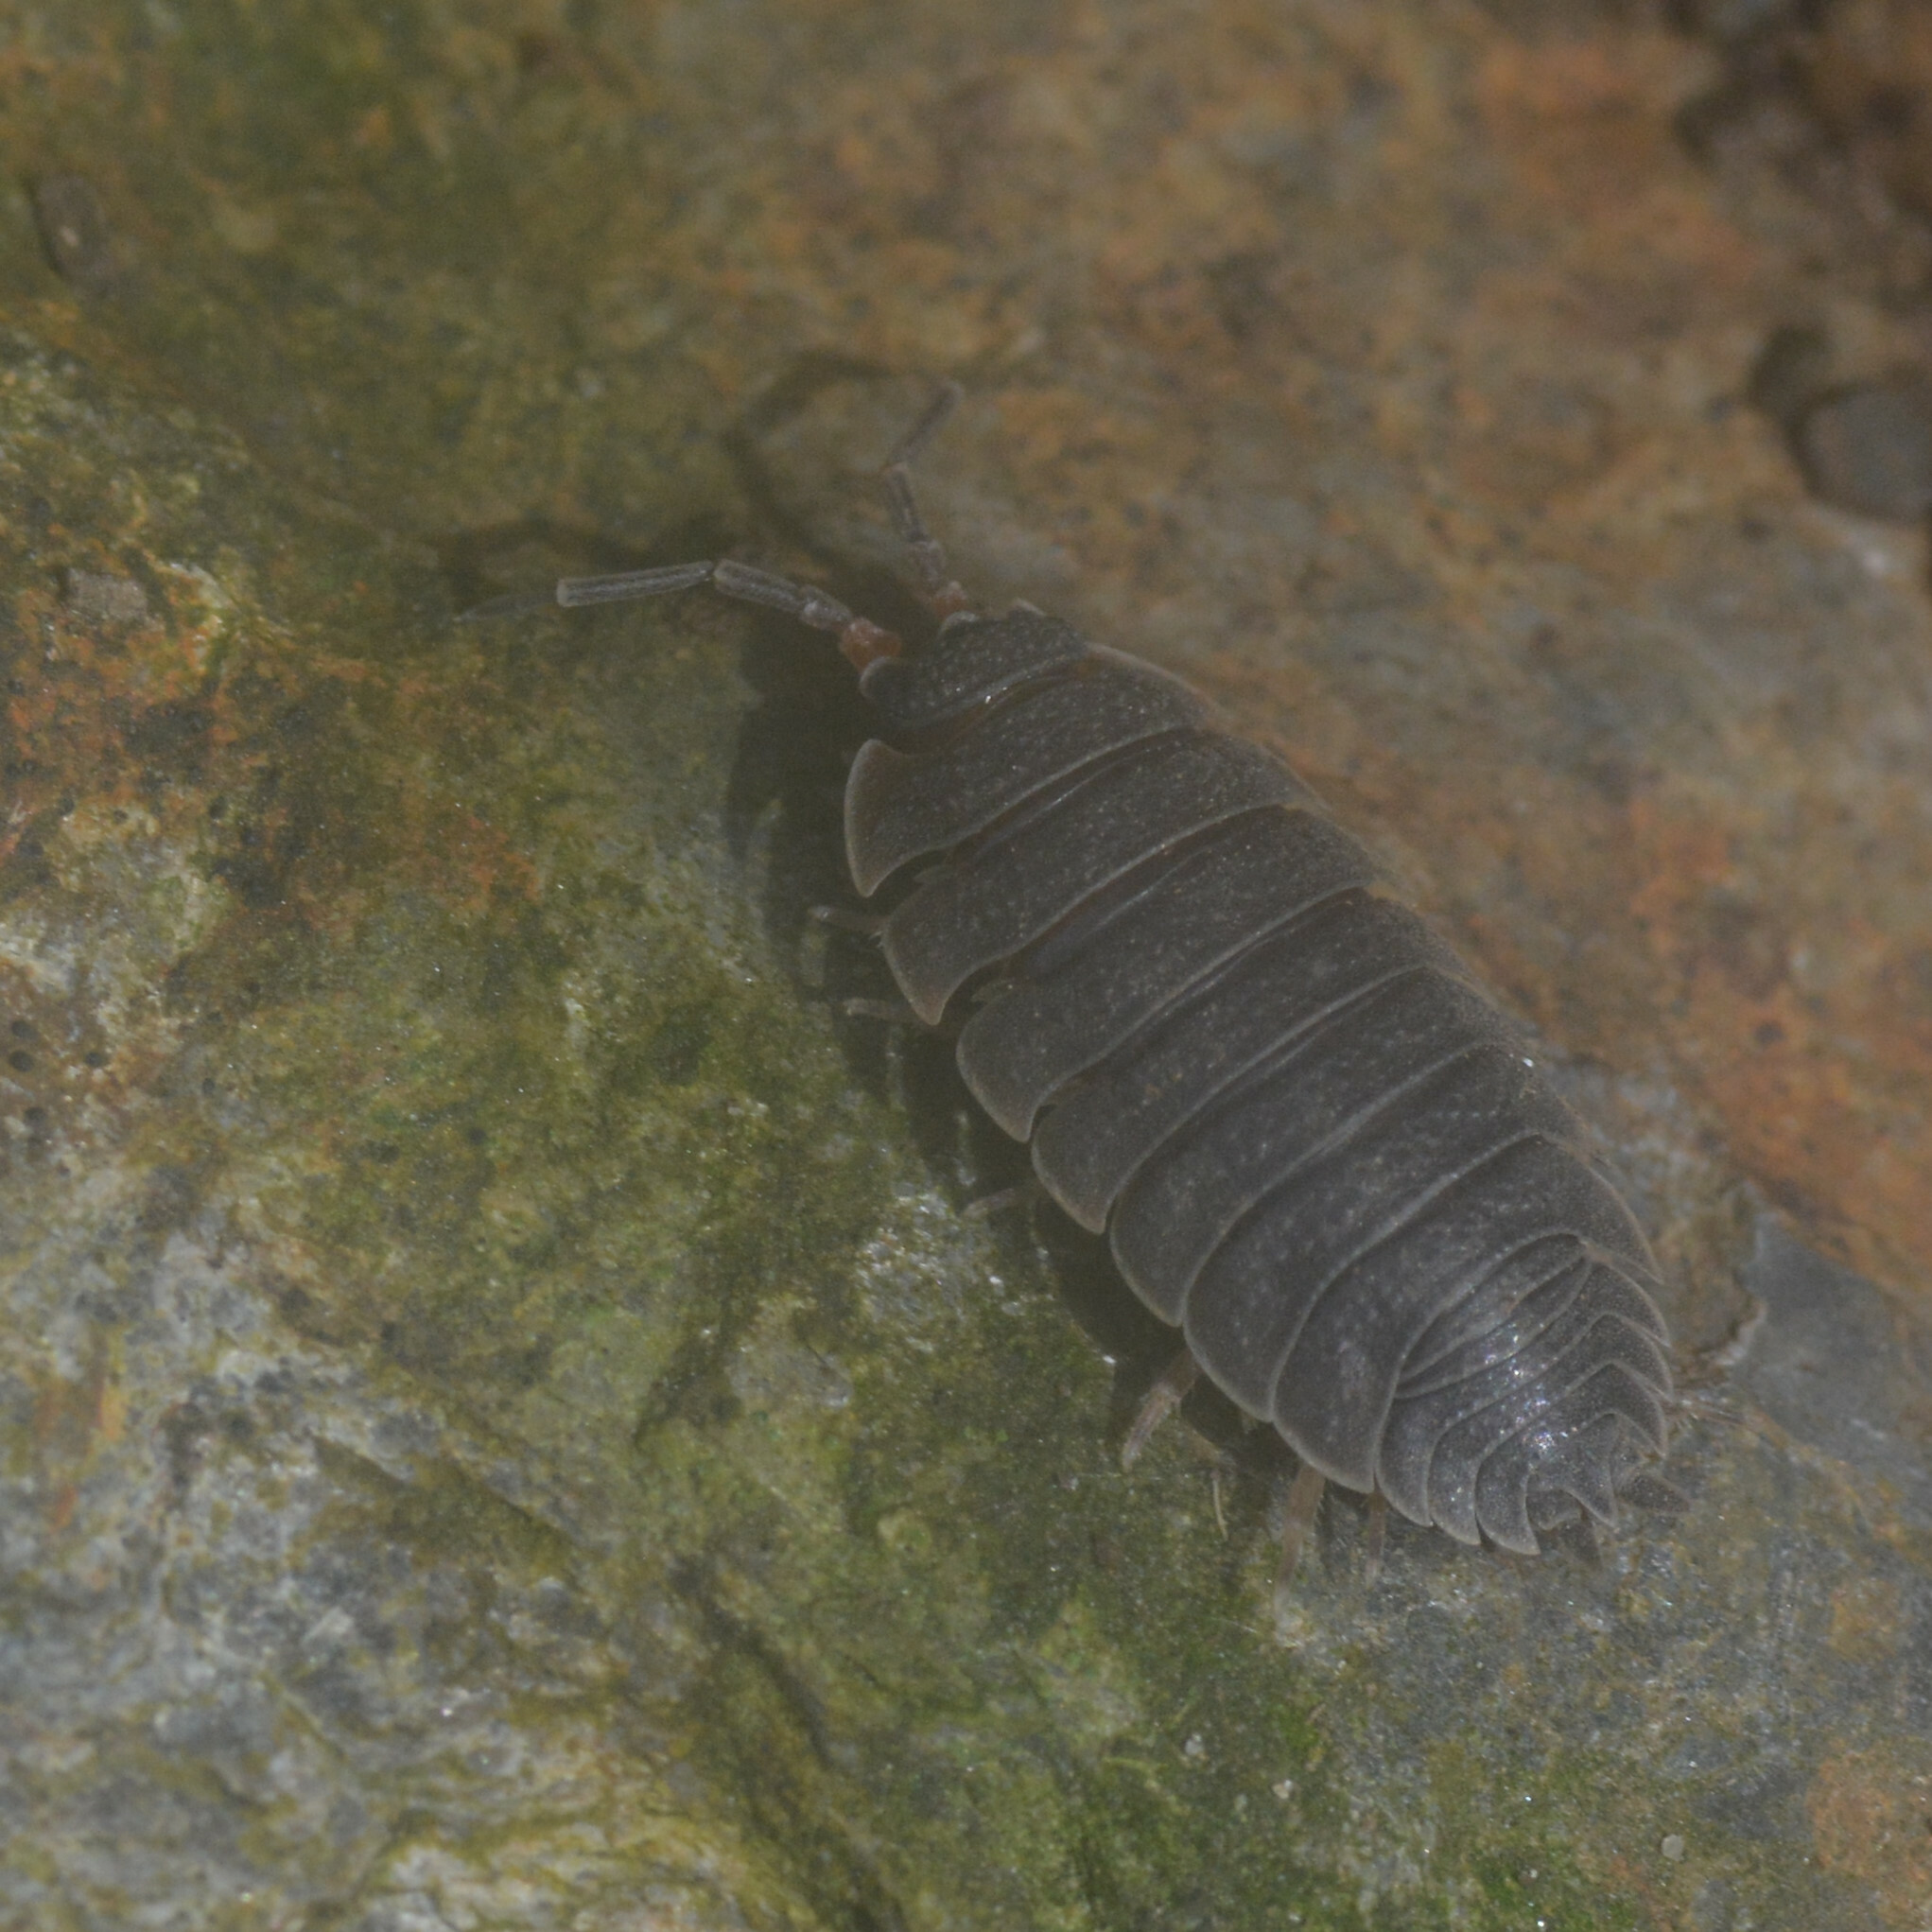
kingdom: Animalia
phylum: Arthropoda
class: Malacostraca
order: Isopoda
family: Porcellionidae
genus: Porcellio
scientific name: Porcellio scaber
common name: Common rough woodlouse
